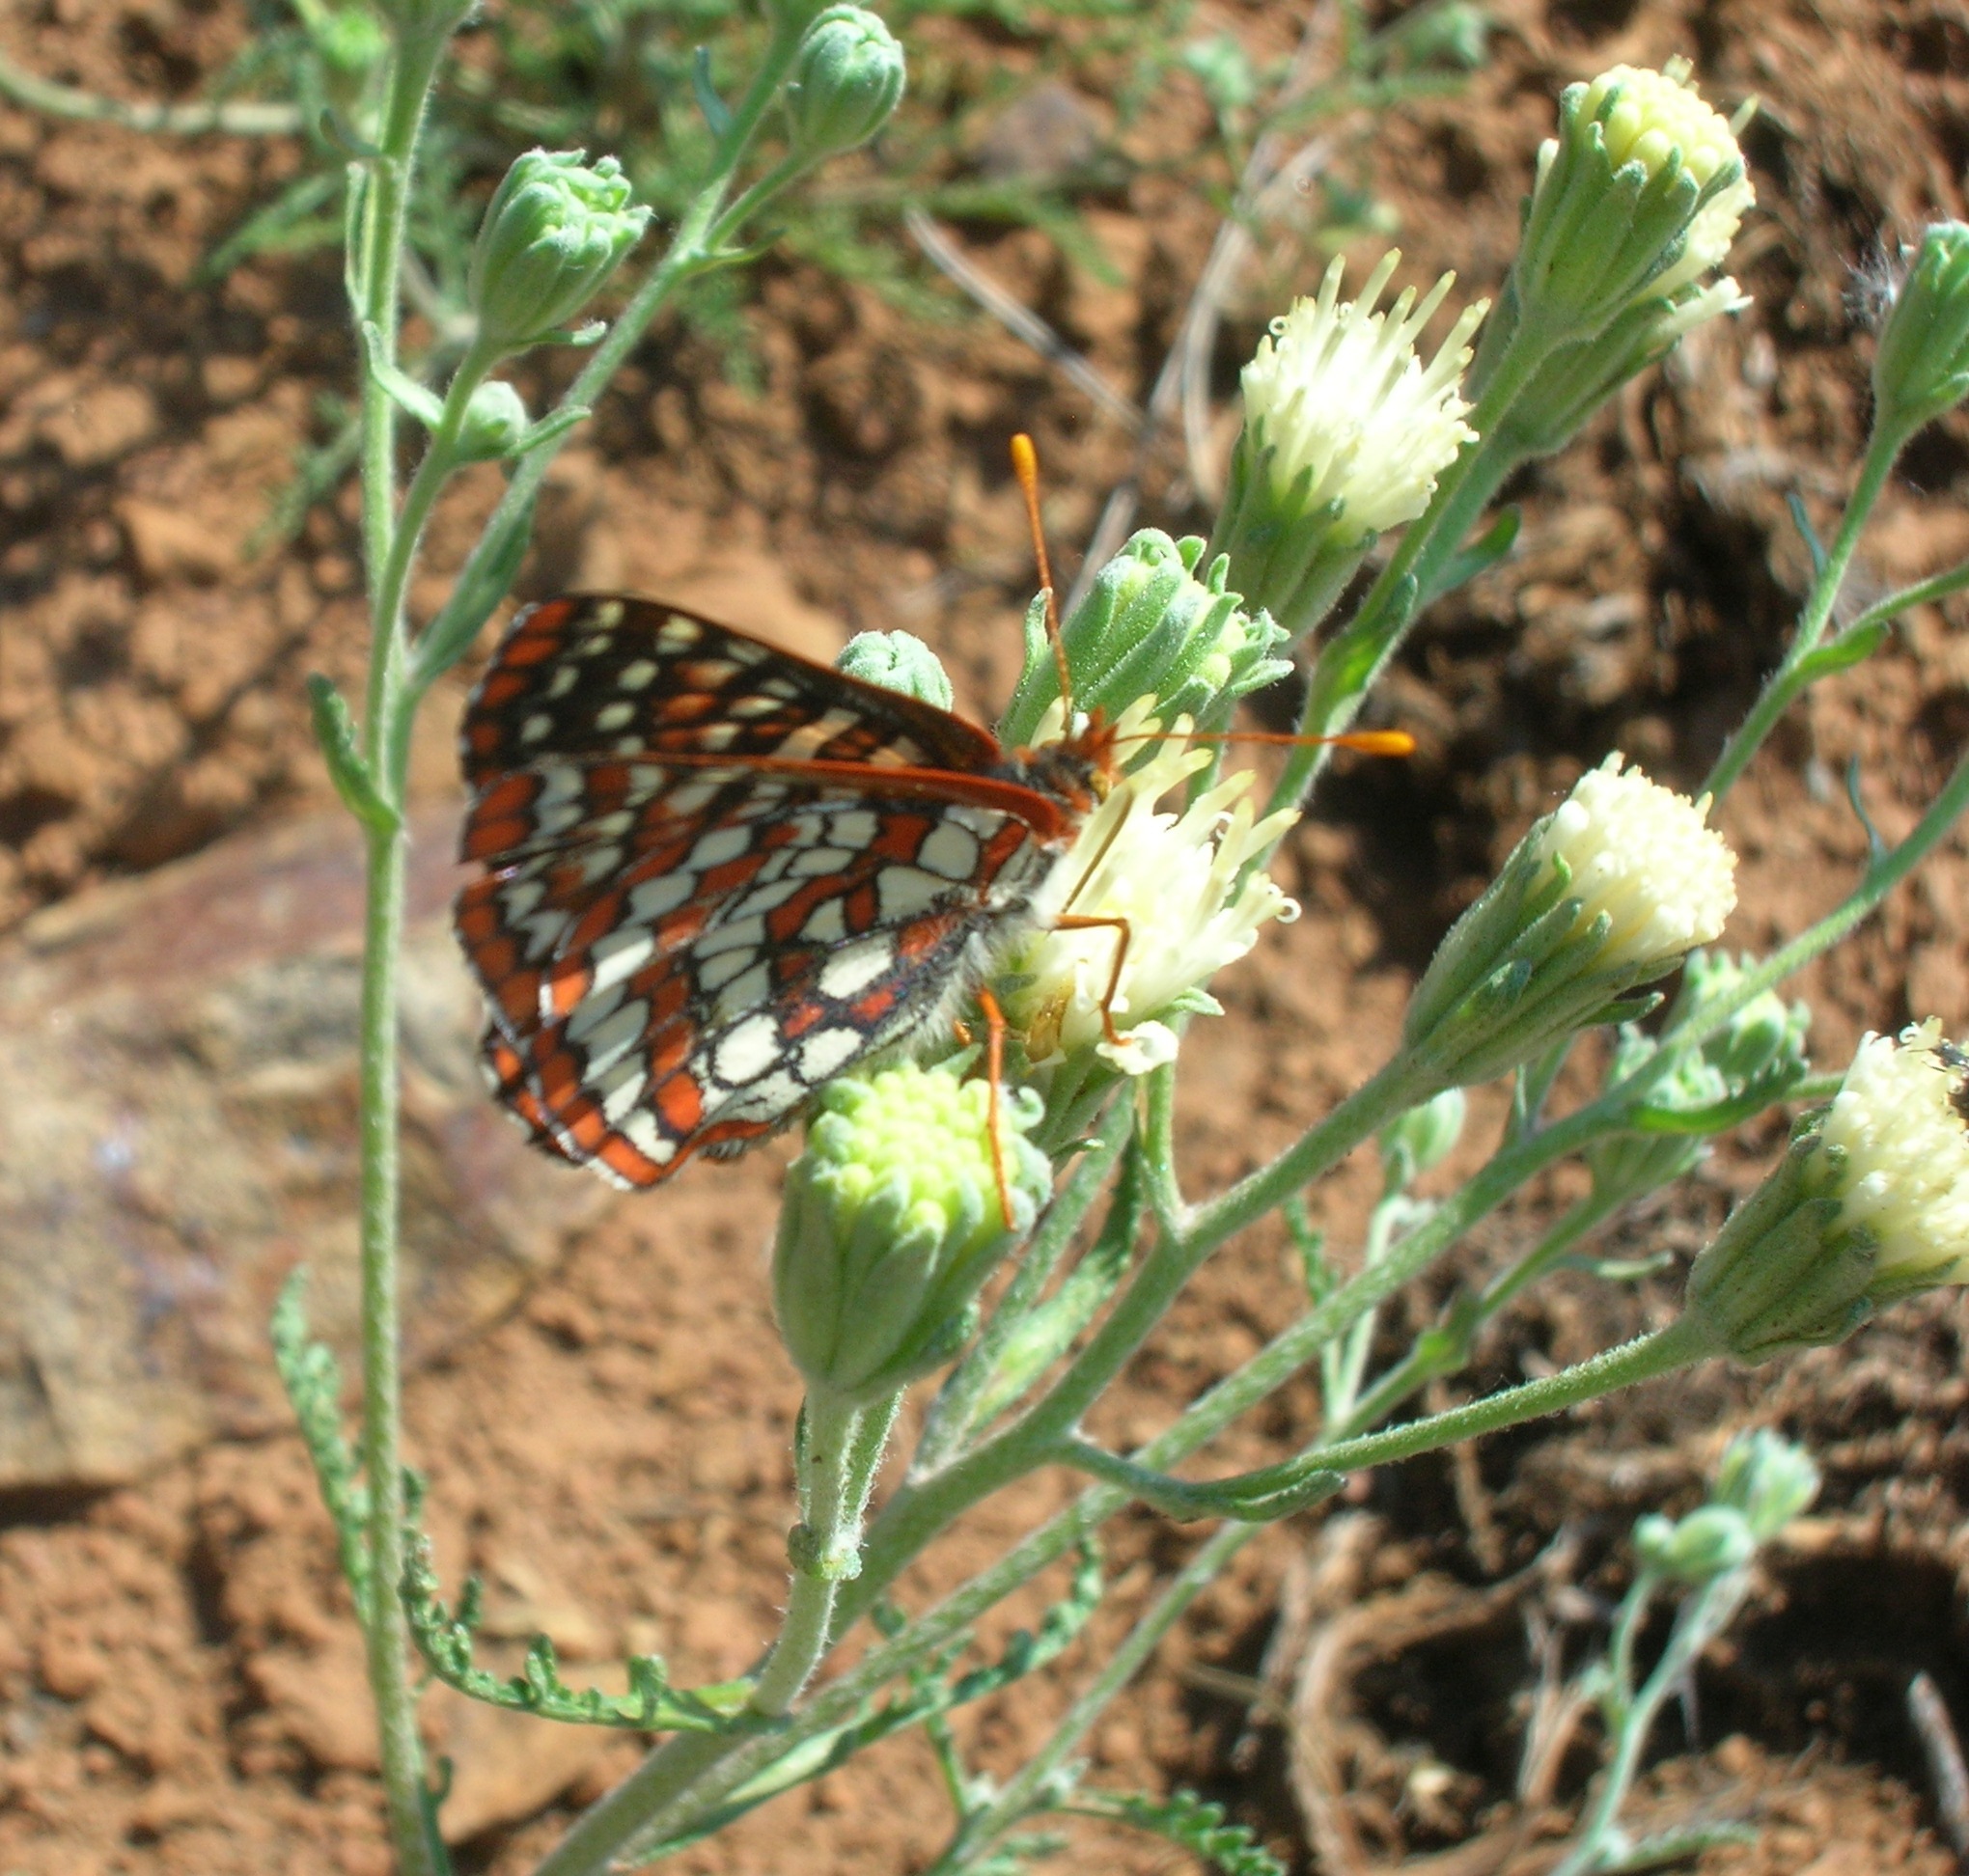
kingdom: Animalia
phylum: Arthropoda
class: Insecta
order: Lepidoptera
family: Nymphalidae
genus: Occidryas
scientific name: Occidryas colon
